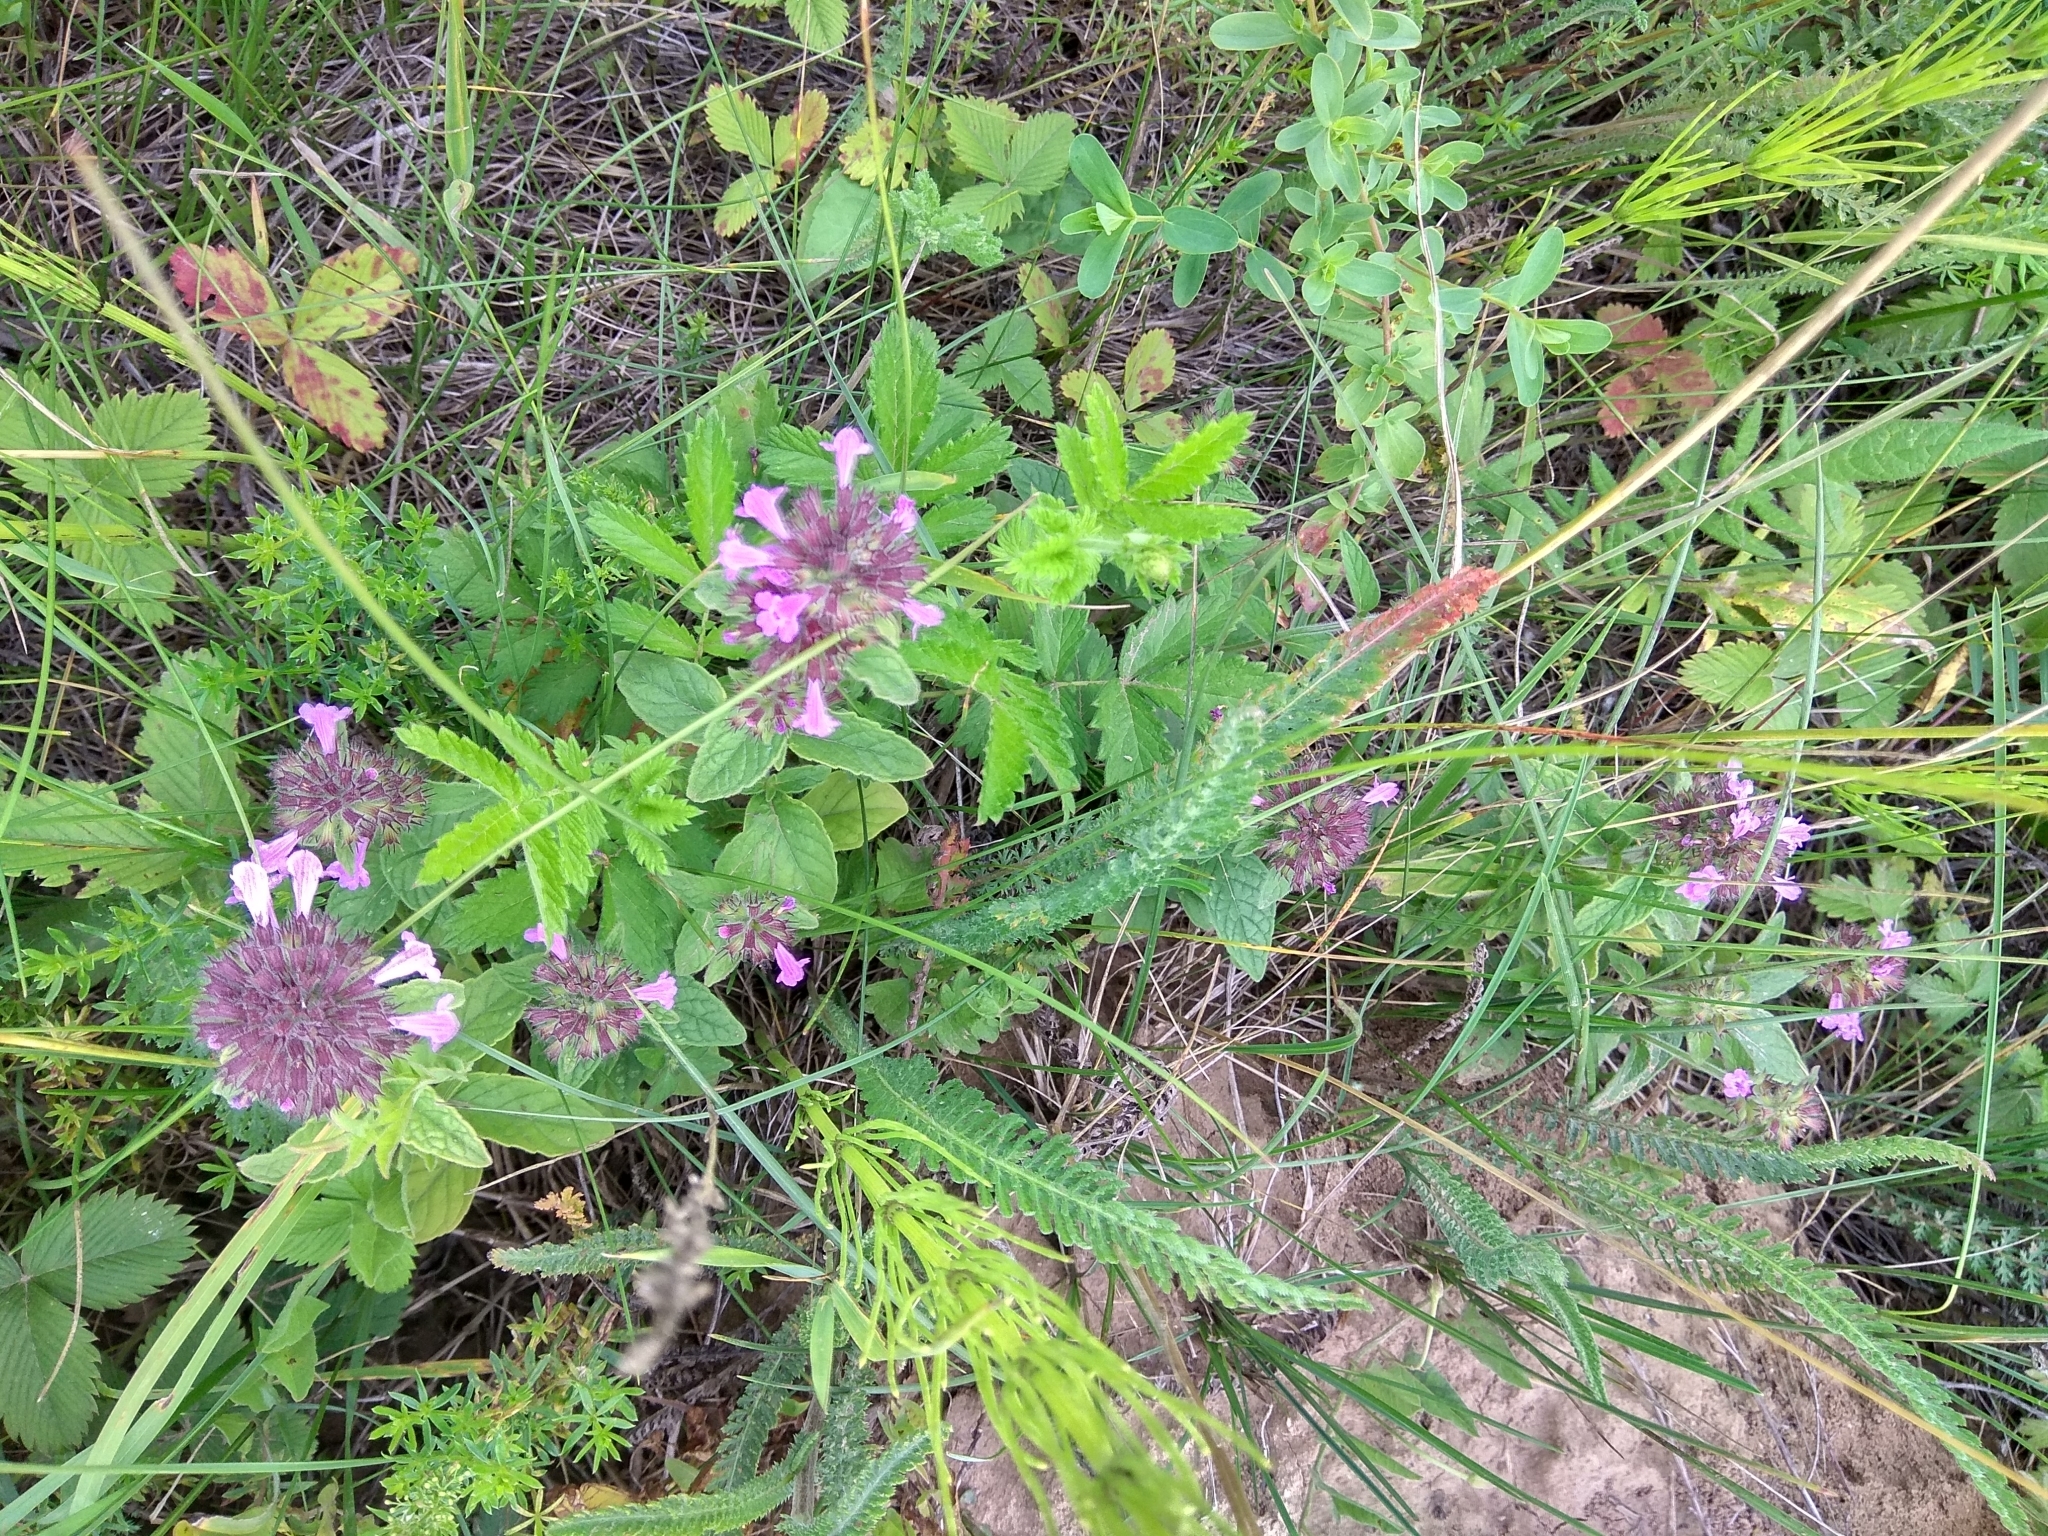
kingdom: Plantae
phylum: Tracheophyta
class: Magnoliopsida
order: Lamiales
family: Lamiaceae
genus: Clinopodium
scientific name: Clinopodium vulgare
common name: Wild basil
